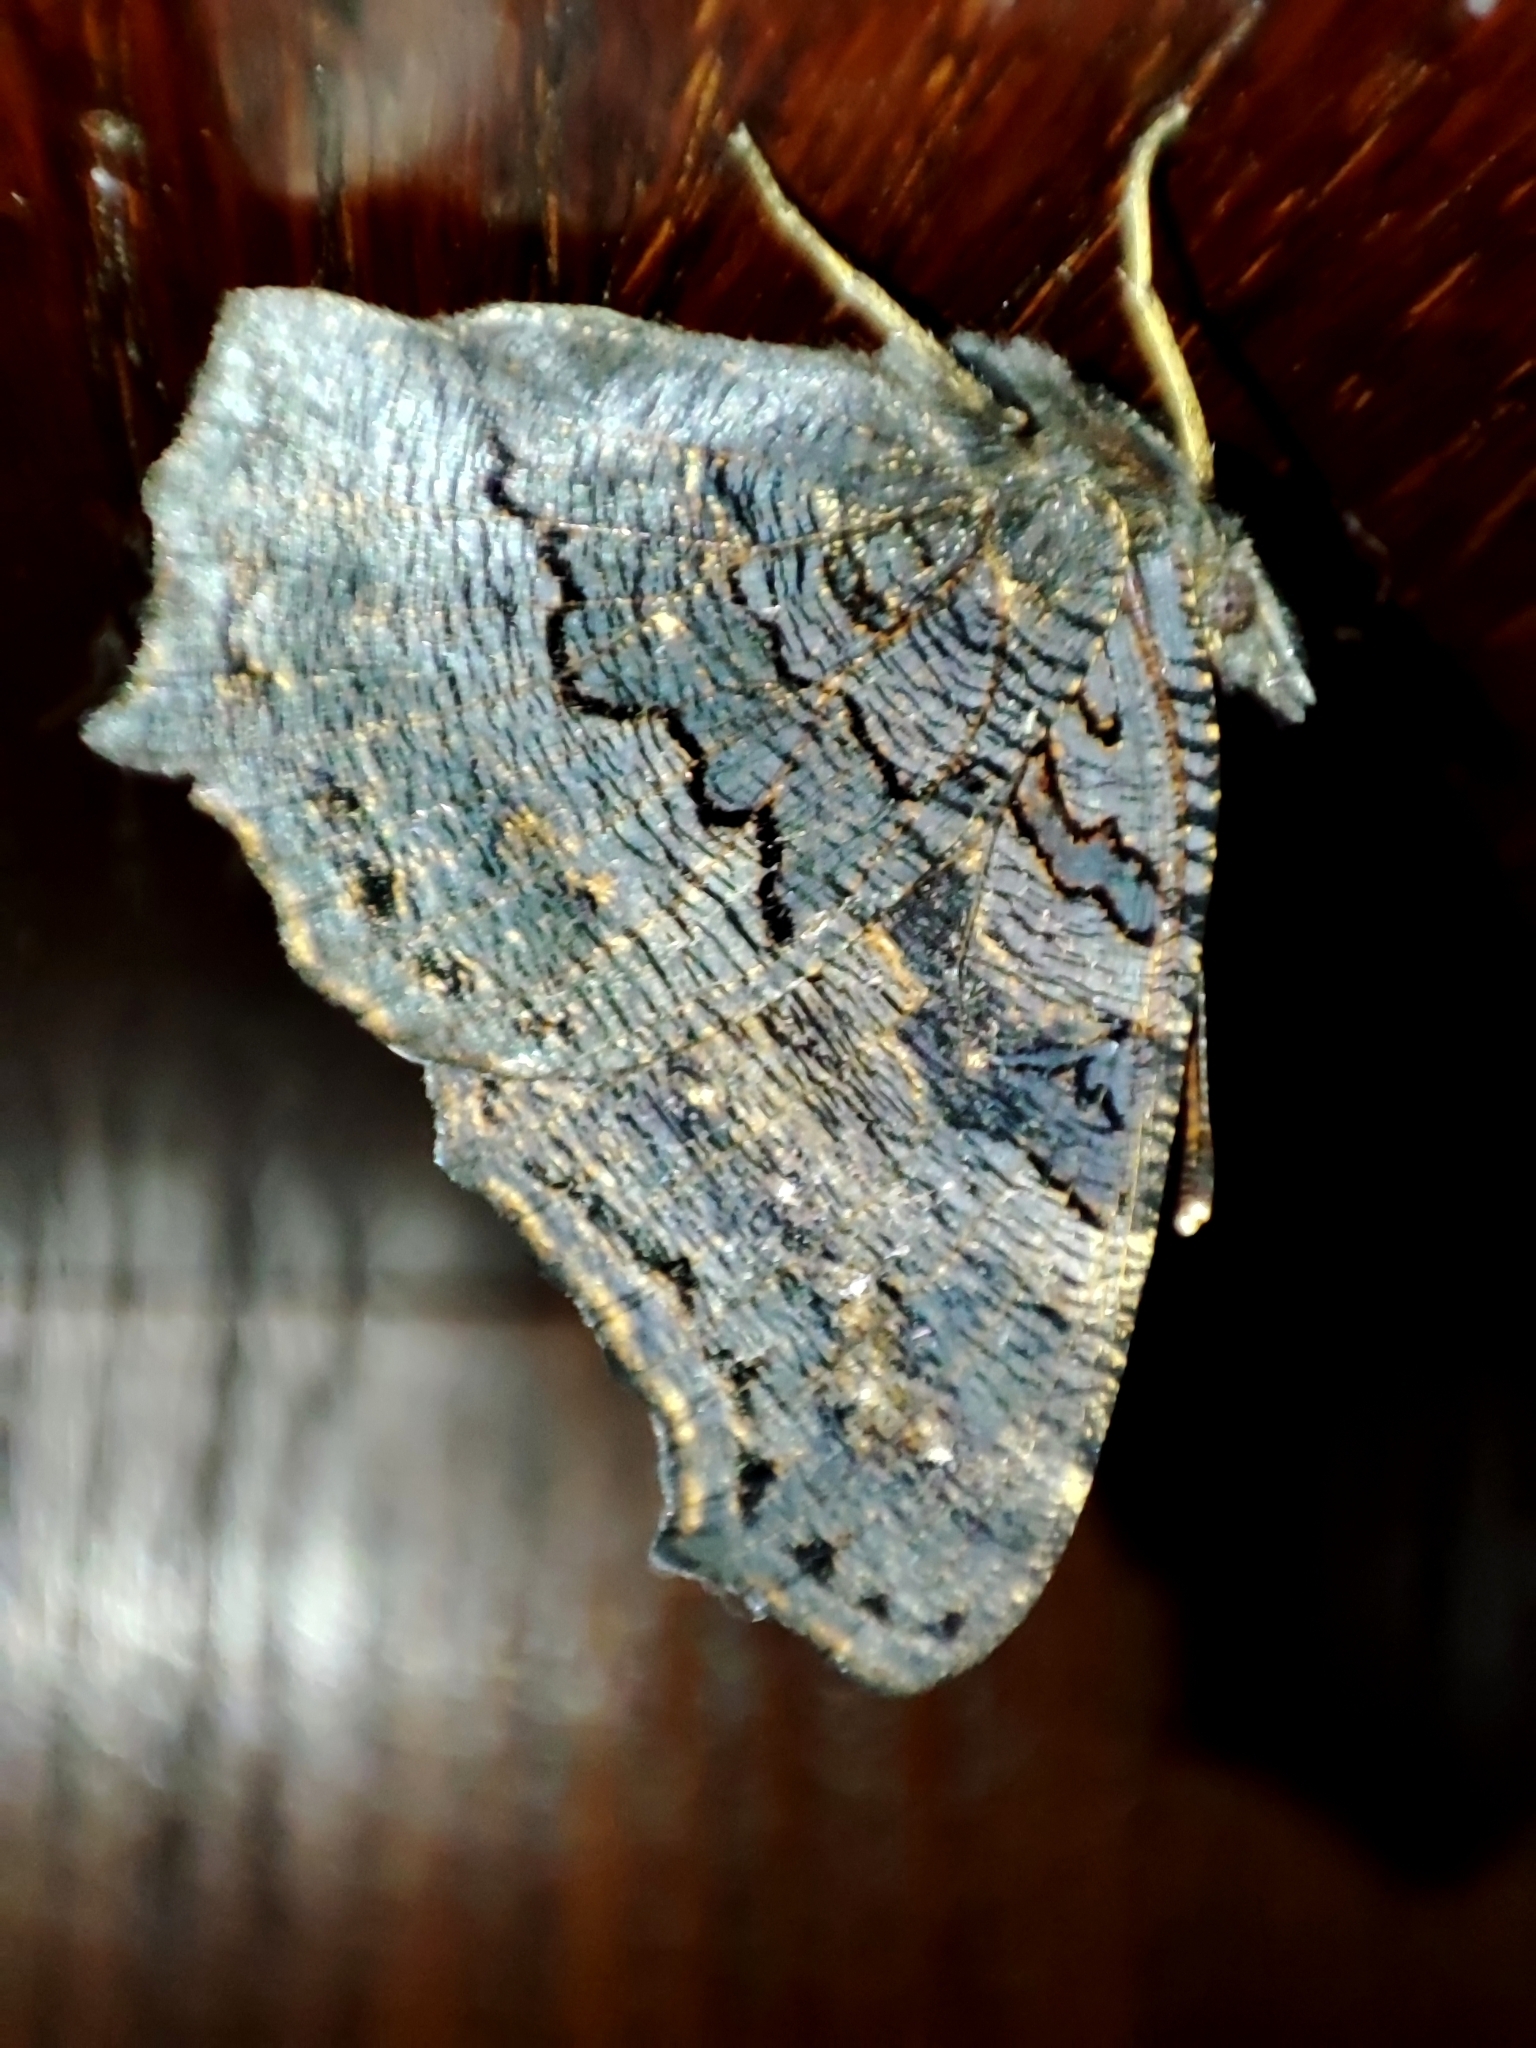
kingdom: Animalia
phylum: Arthropoda
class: Insecta
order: Lepidoptera
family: Nymphalidae
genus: Aglais
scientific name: Aglais io
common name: Peacock
